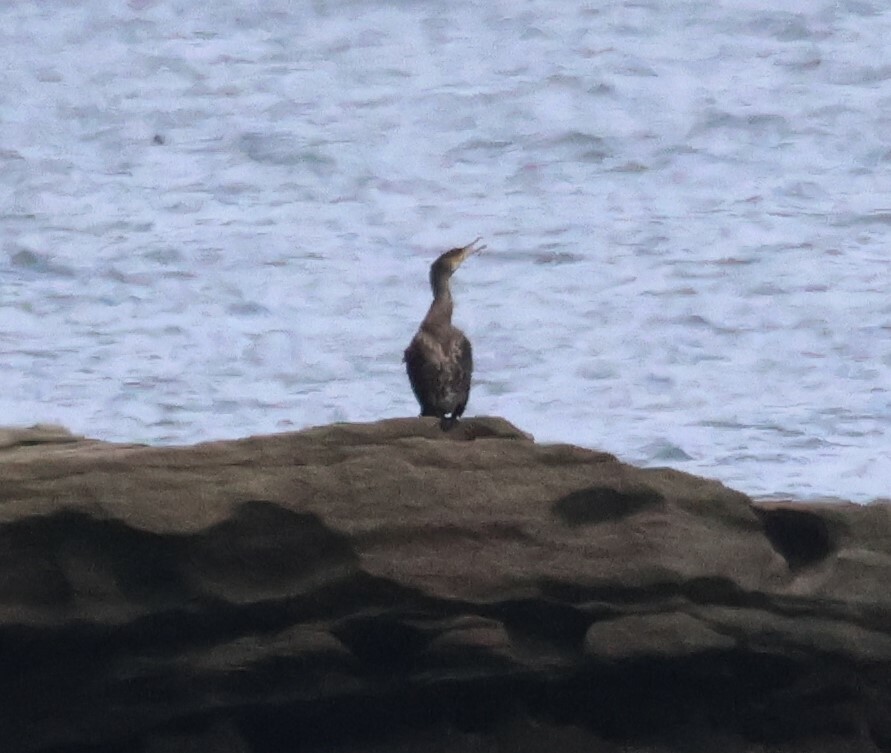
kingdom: Animalia
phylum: Chordata
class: Aves
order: Suliformes
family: Phalacrocoracidae
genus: Phalacrocorax
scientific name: Phalacrocorax carbo
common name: Great cormorant
